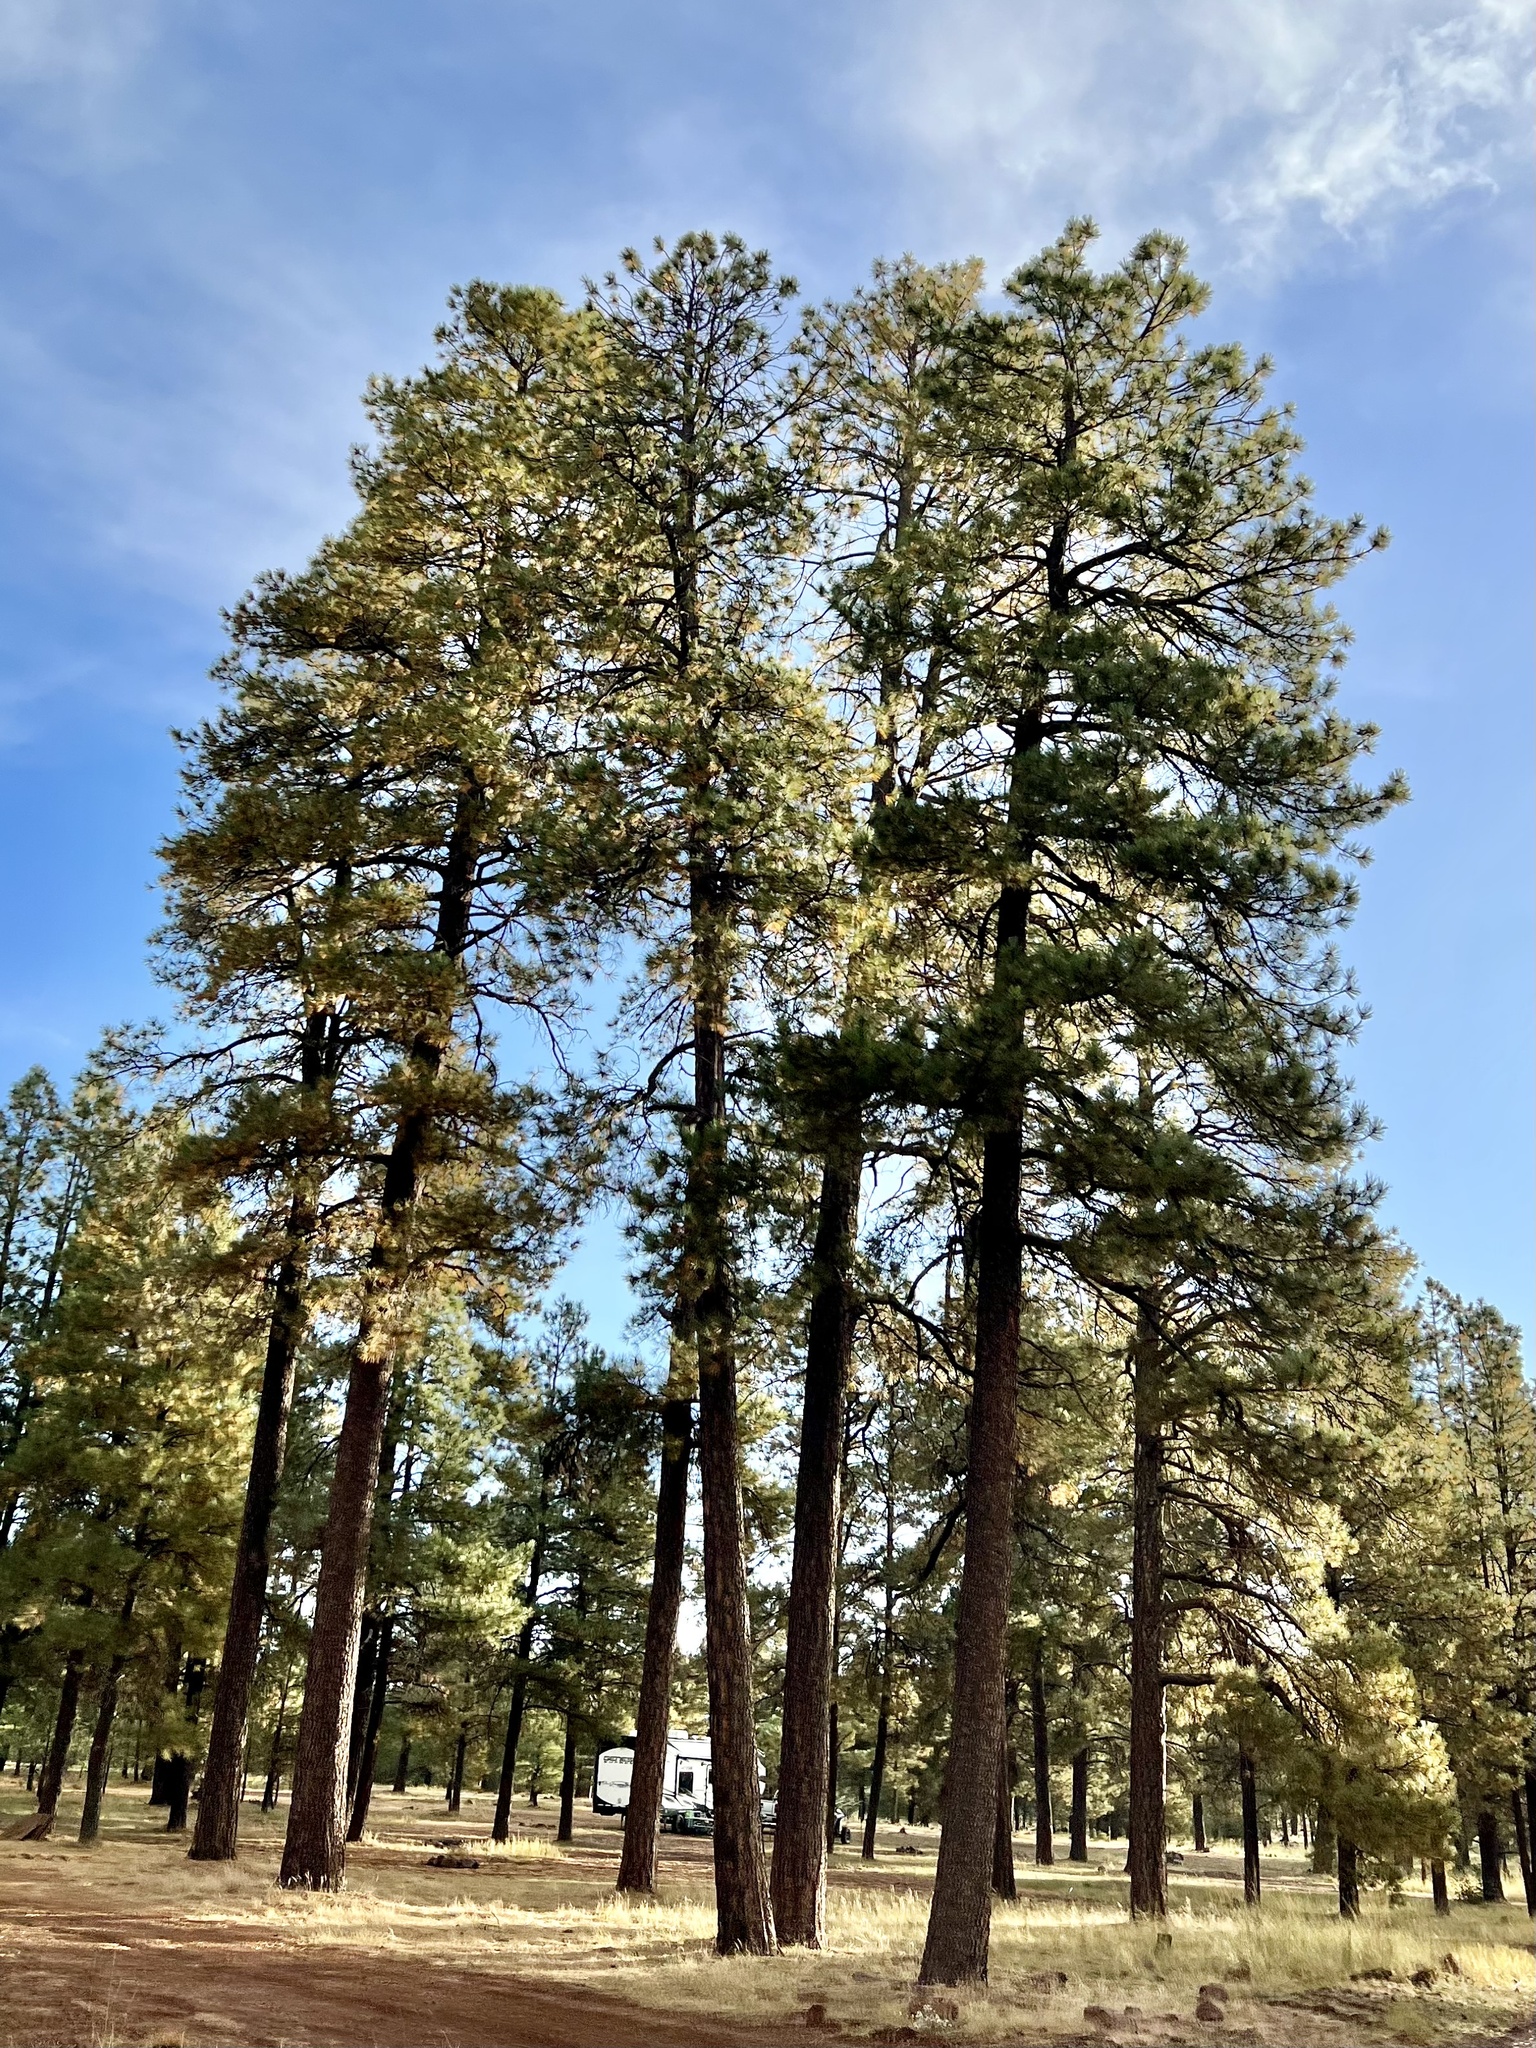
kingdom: Plantae
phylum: Tracheophyta
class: Pinopsida
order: Pinales
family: Pinaceae
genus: Pinus
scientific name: Pinus ponderosa
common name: Western yellow-pine
